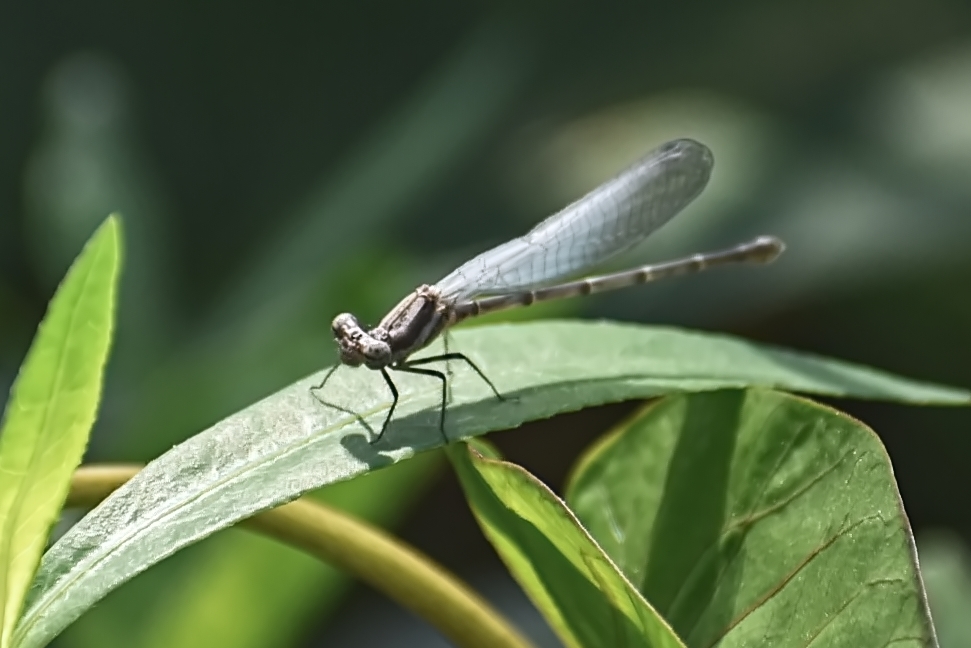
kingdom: Animalia
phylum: Arthropoda
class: Insecta
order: Odonata
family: Platycnemididae
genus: Onychargia
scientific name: Onychargia atrocyana
